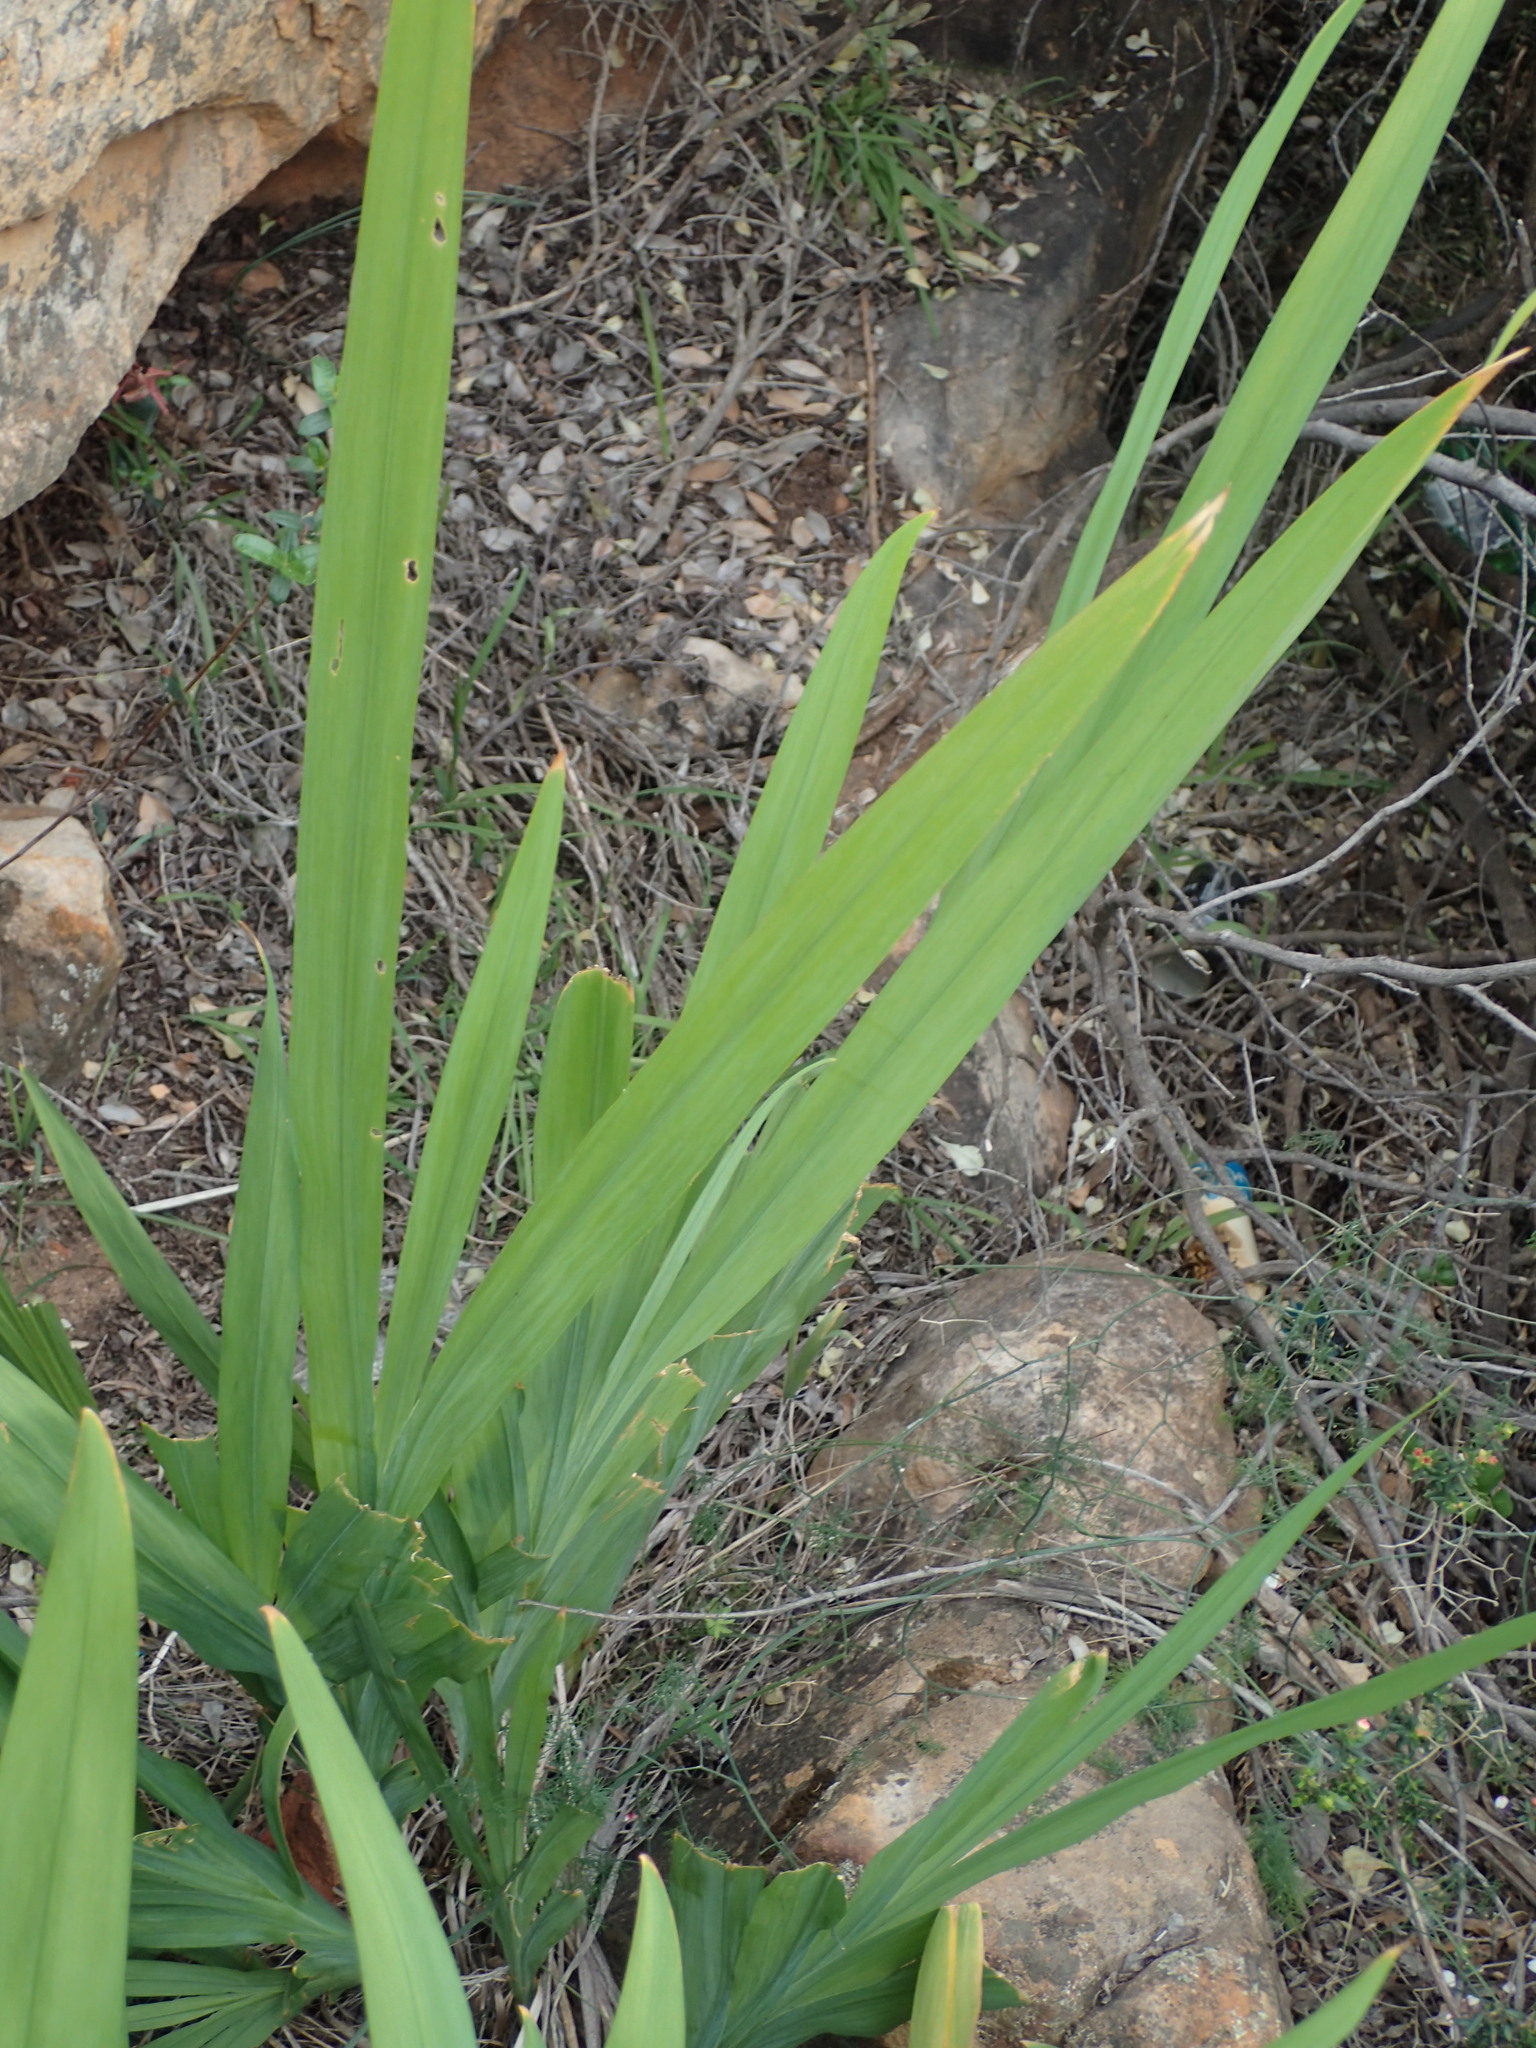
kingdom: Plantae
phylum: Tracheophyta
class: Liliopsida
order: Asparagales
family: Iridaceae
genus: Chasmanthe
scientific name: Chasmanthe floribunda
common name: African cornflag
